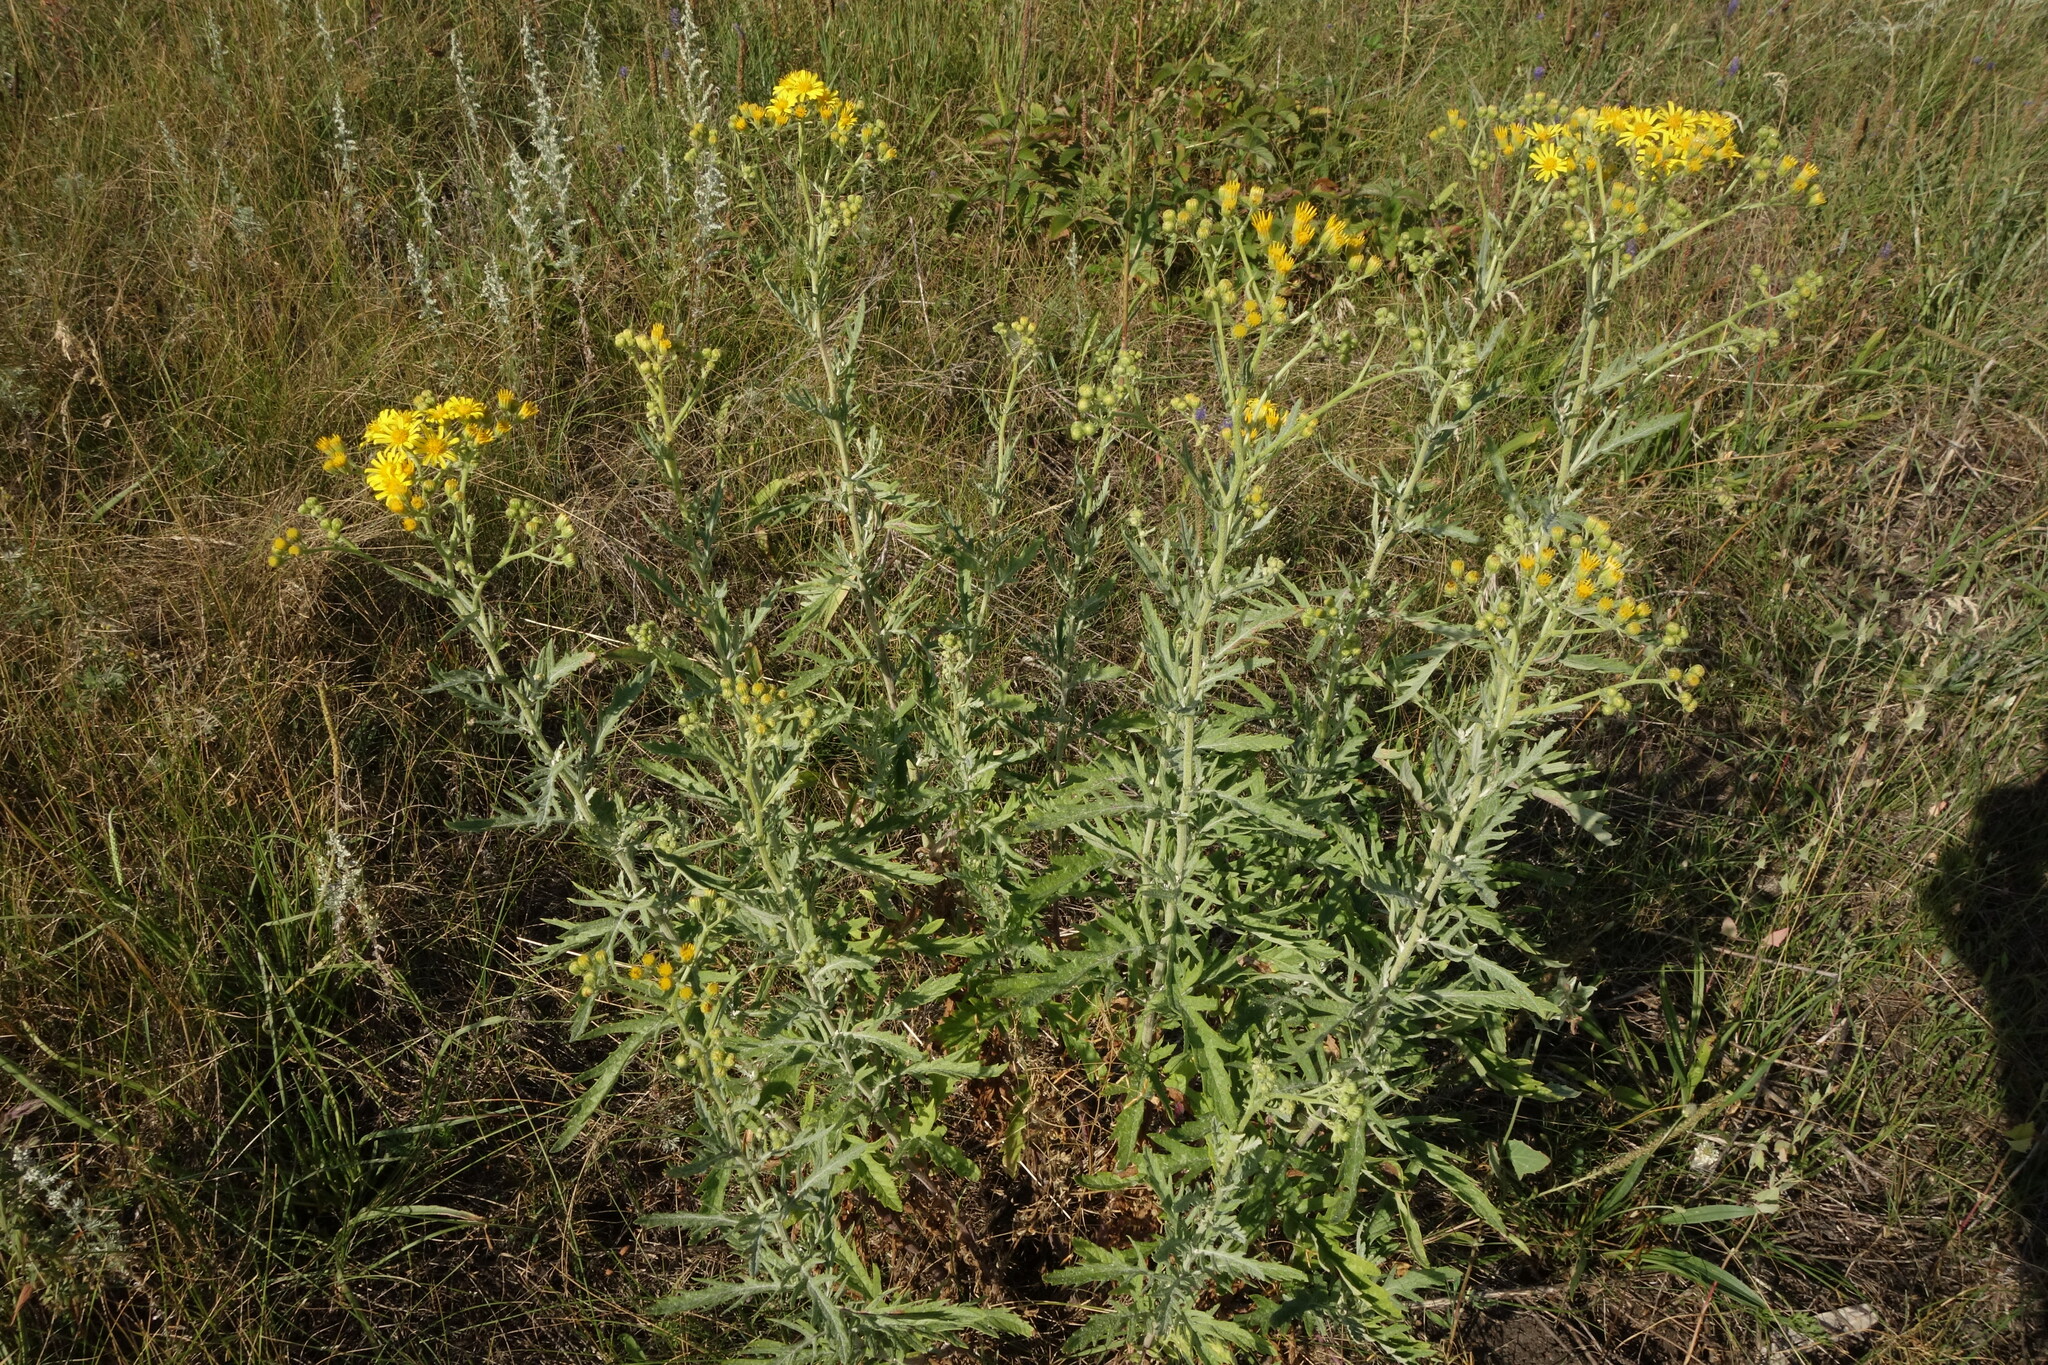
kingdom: Plantae
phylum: Tracheophyta
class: Magnoliopsida
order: Asterales
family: Asteraceae
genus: Jacobaea
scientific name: Jacobaea erucifolia
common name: Hoary ragwort
